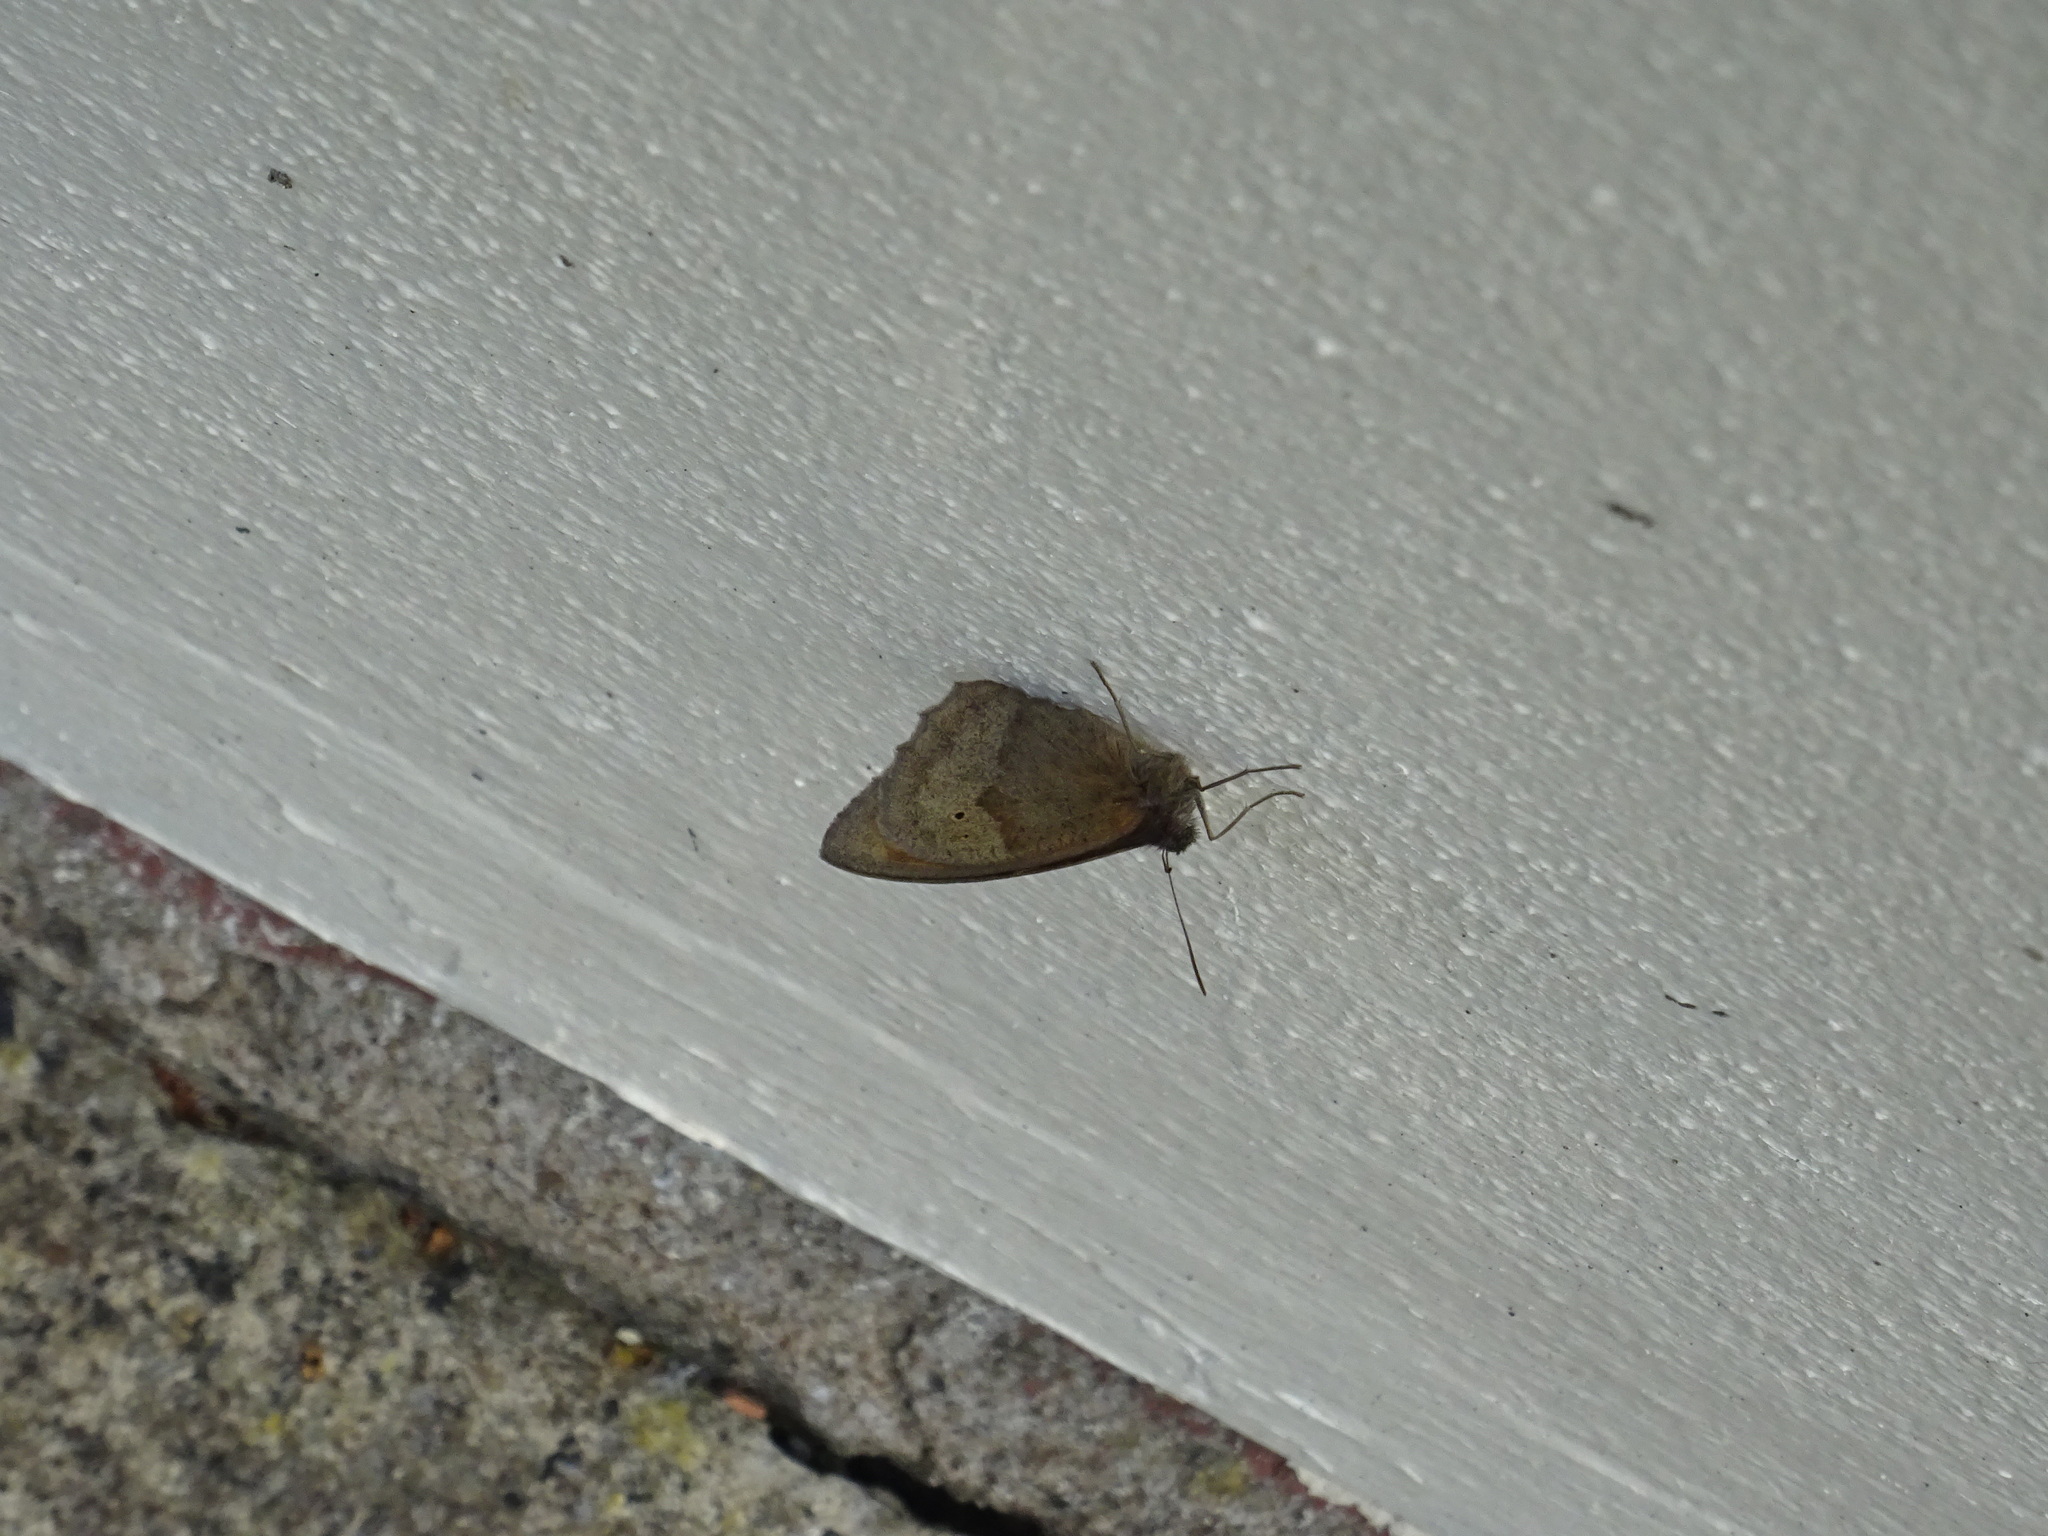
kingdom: Animalia
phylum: Arthropoda
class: Insecta
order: Lepidoptera
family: Nymphalidae
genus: Maniola
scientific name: Maniola jurtina
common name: Meadow brown
